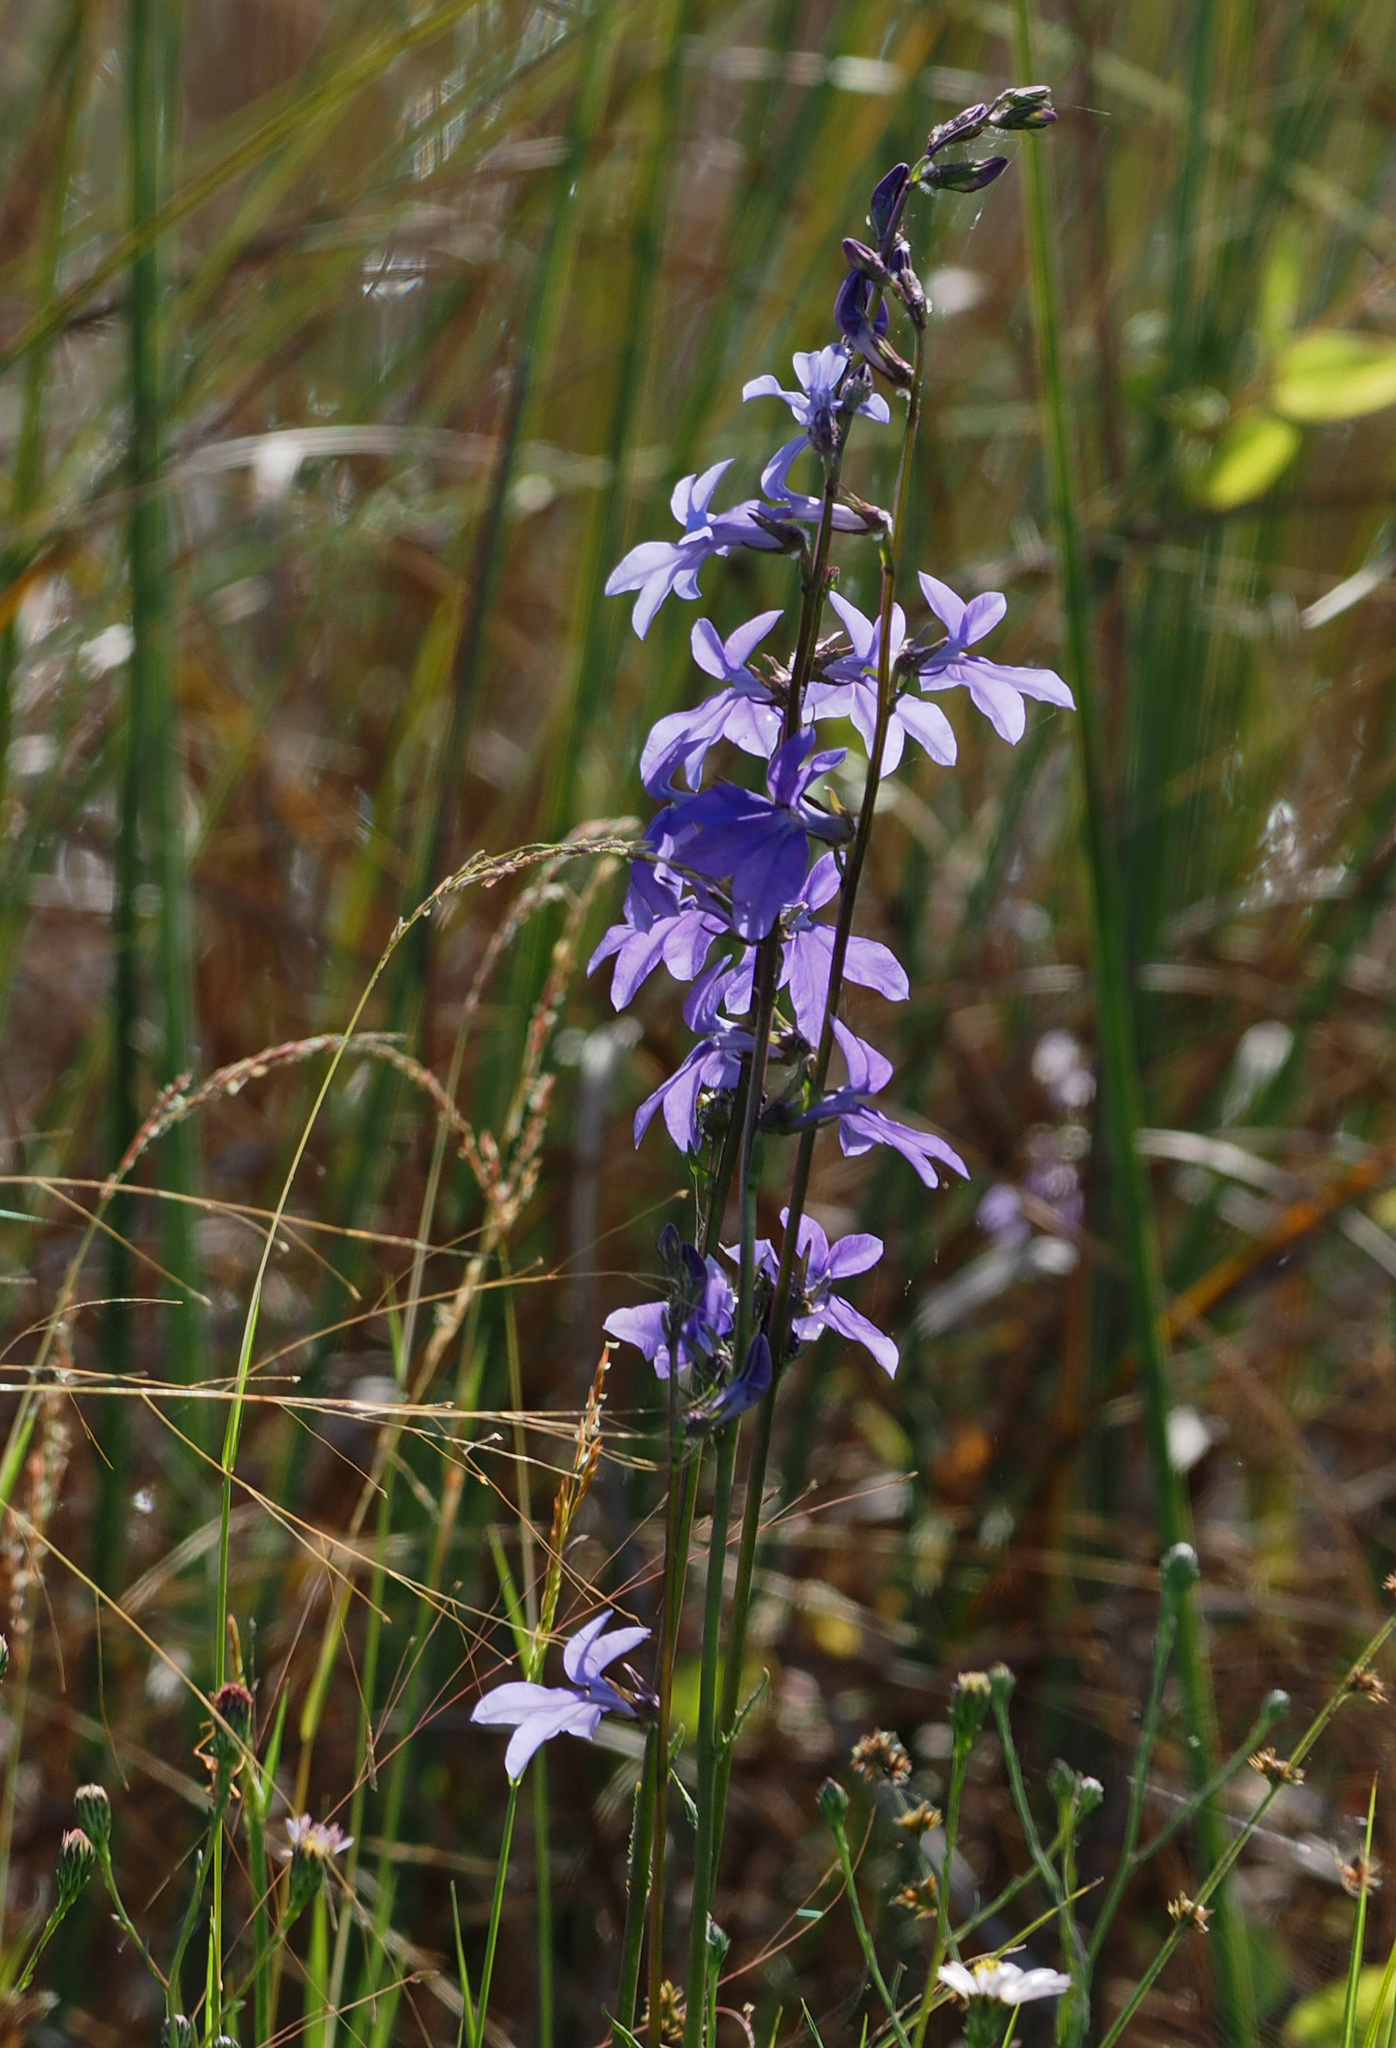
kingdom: Plantae
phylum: Tracheophyta
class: Magnoliopsida
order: Asterales
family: Campanulaceae
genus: Lobelia
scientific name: Lobelia glandulosa
